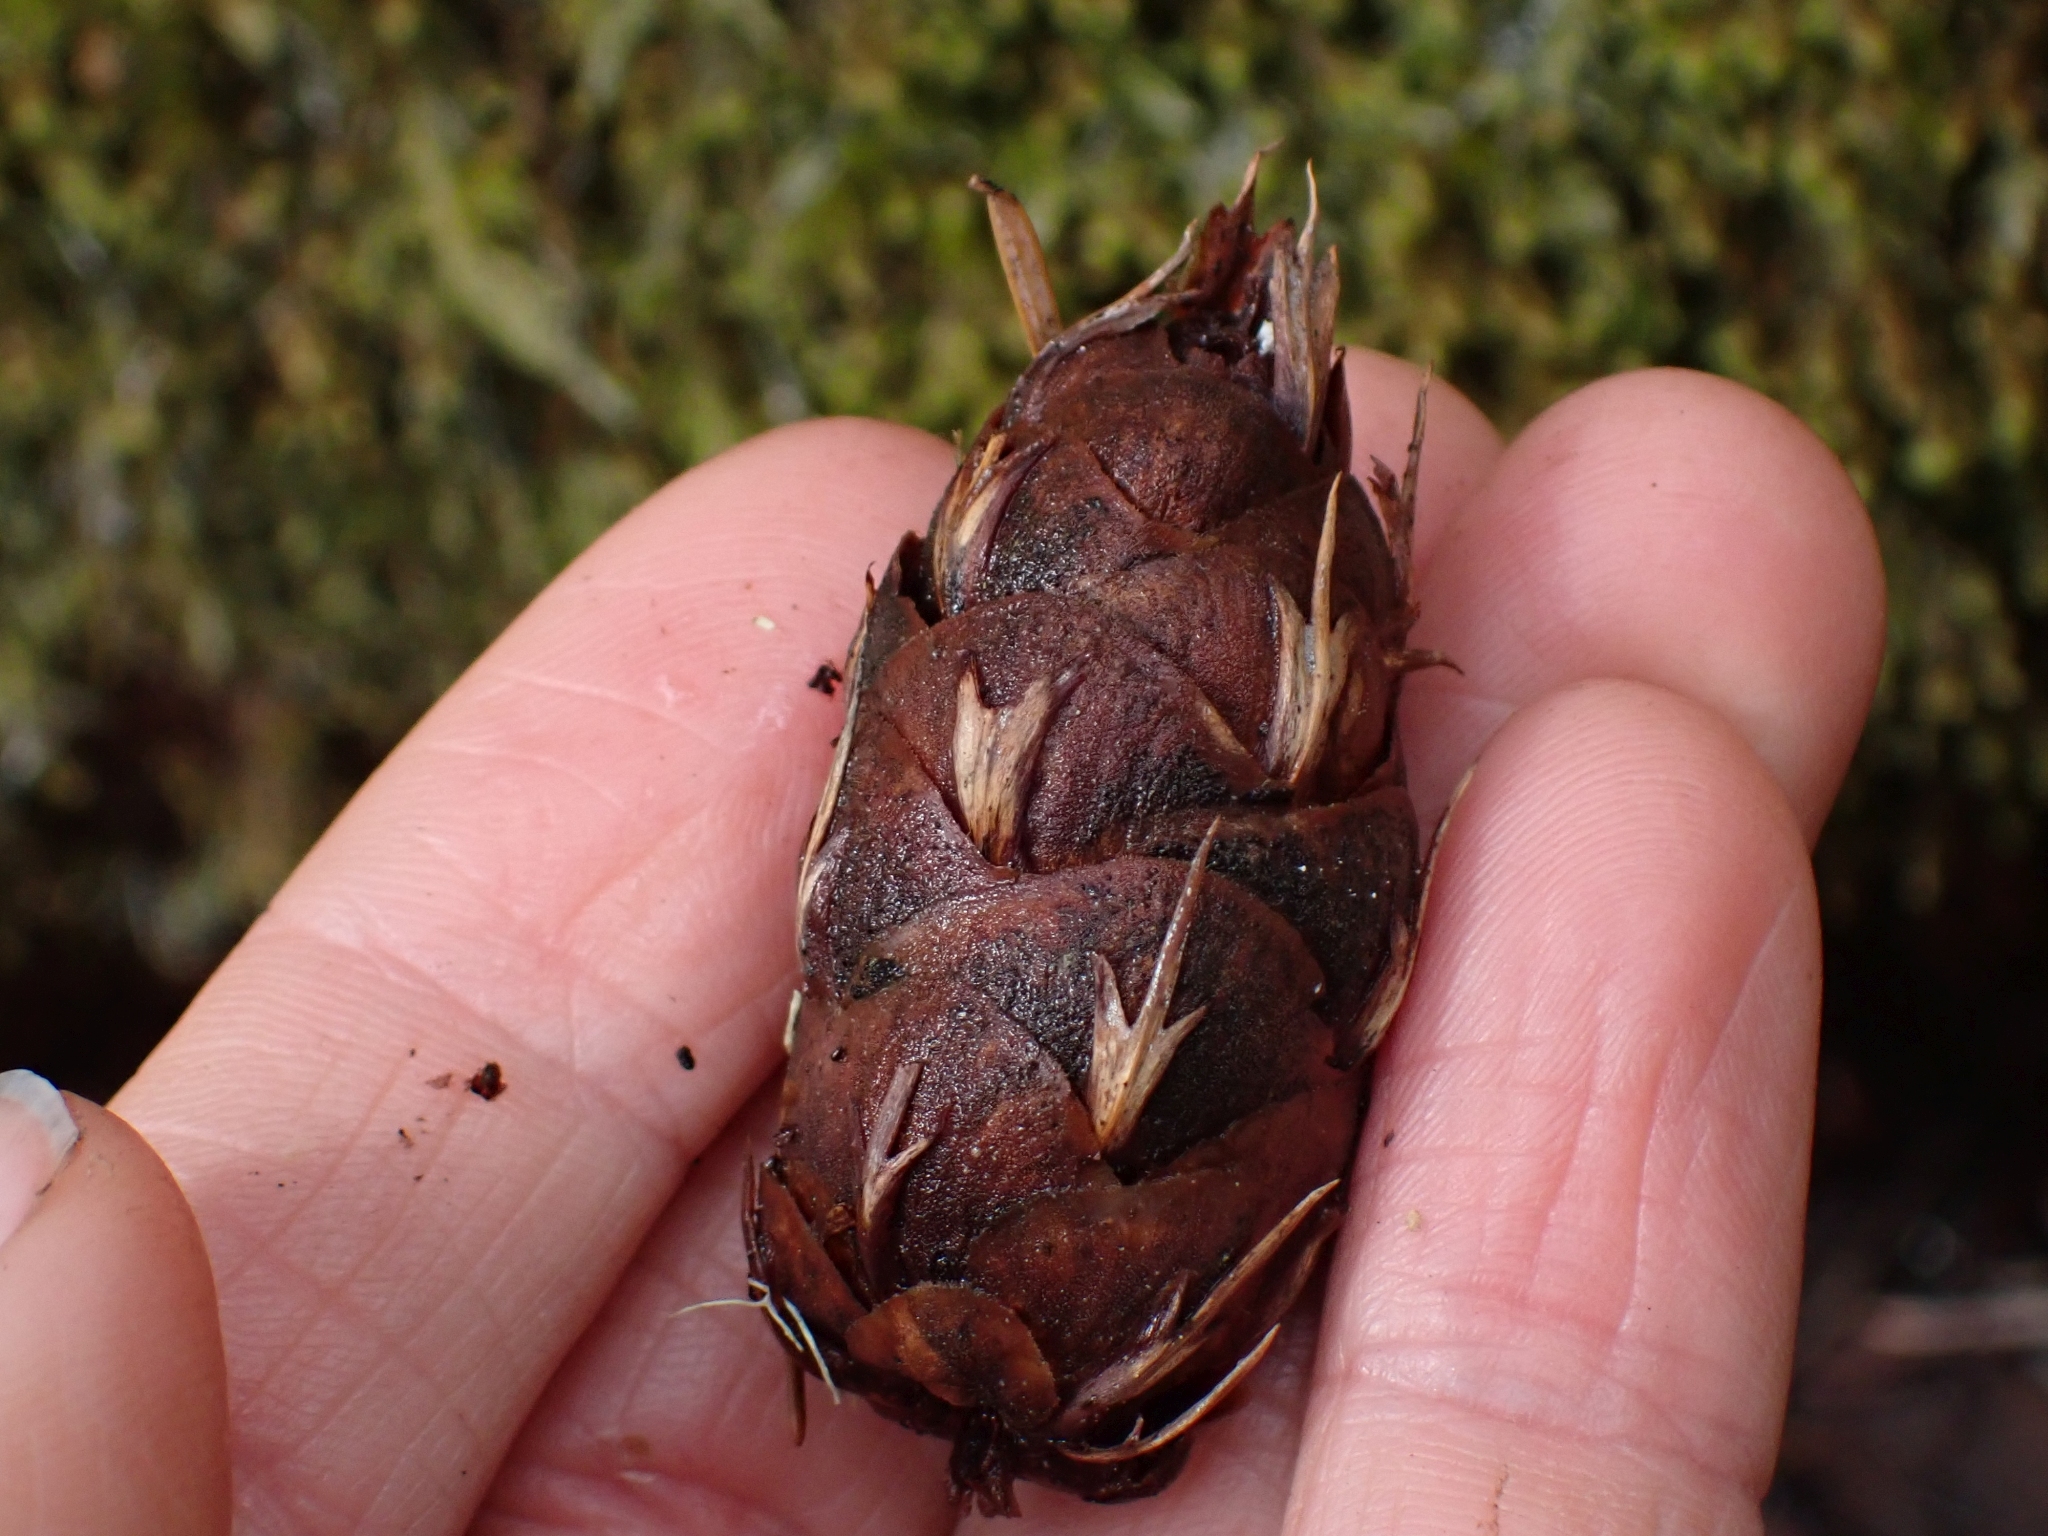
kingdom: Plantae
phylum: Tracheophyta
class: Pinopsida
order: Pinales
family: Pinaceae
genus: Pseudotsuga
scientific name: Pseudotsuga menziesii
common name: Douglas fir
